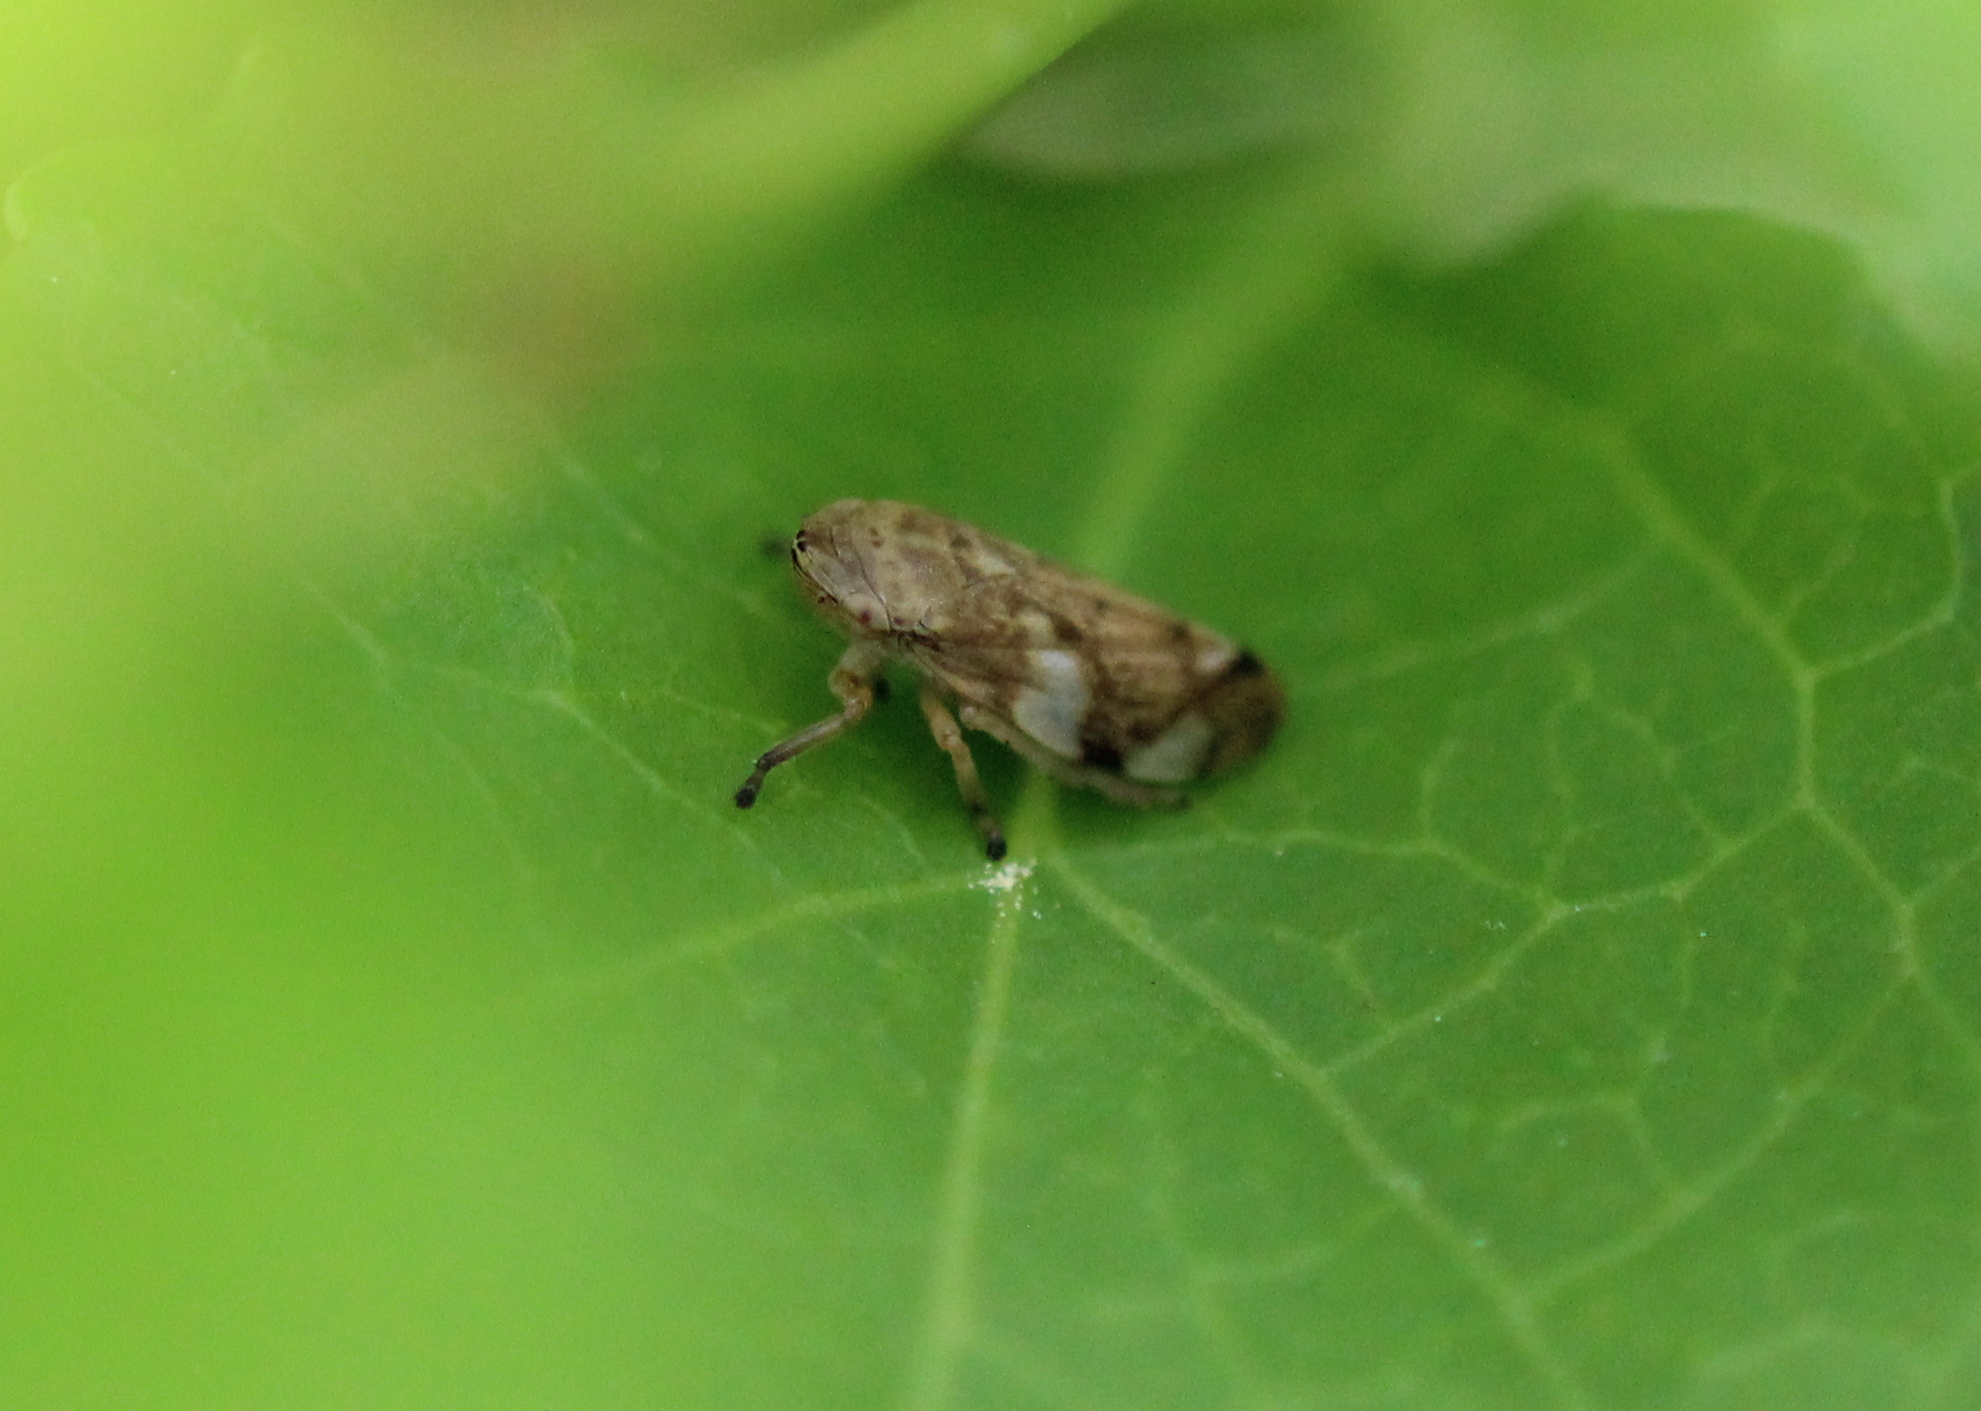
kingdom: Animalia
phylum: Arthropoda
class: Insecta
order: Hemiptera
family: Aphrophoridae
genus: Philaenus
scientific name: Philaenus spumarius
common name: Meadow spittlebug
